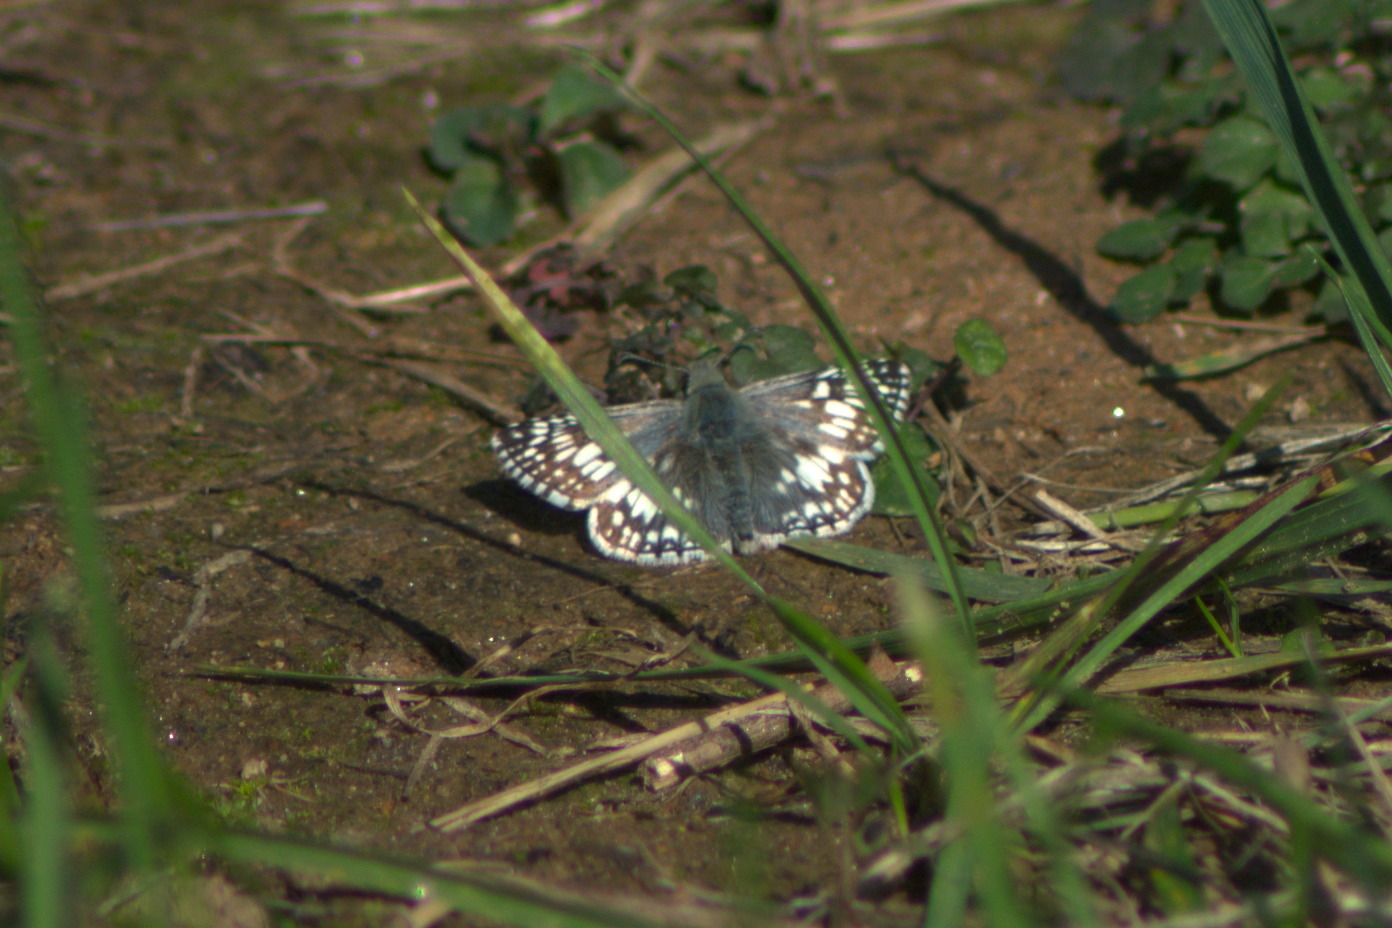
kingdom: Animalia
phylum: Arthropoda
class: Insecta
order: Lepidoptera
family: Hesperiidae
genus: Burnsius
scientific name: Burnsius communis
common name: Common checkered-skipper
